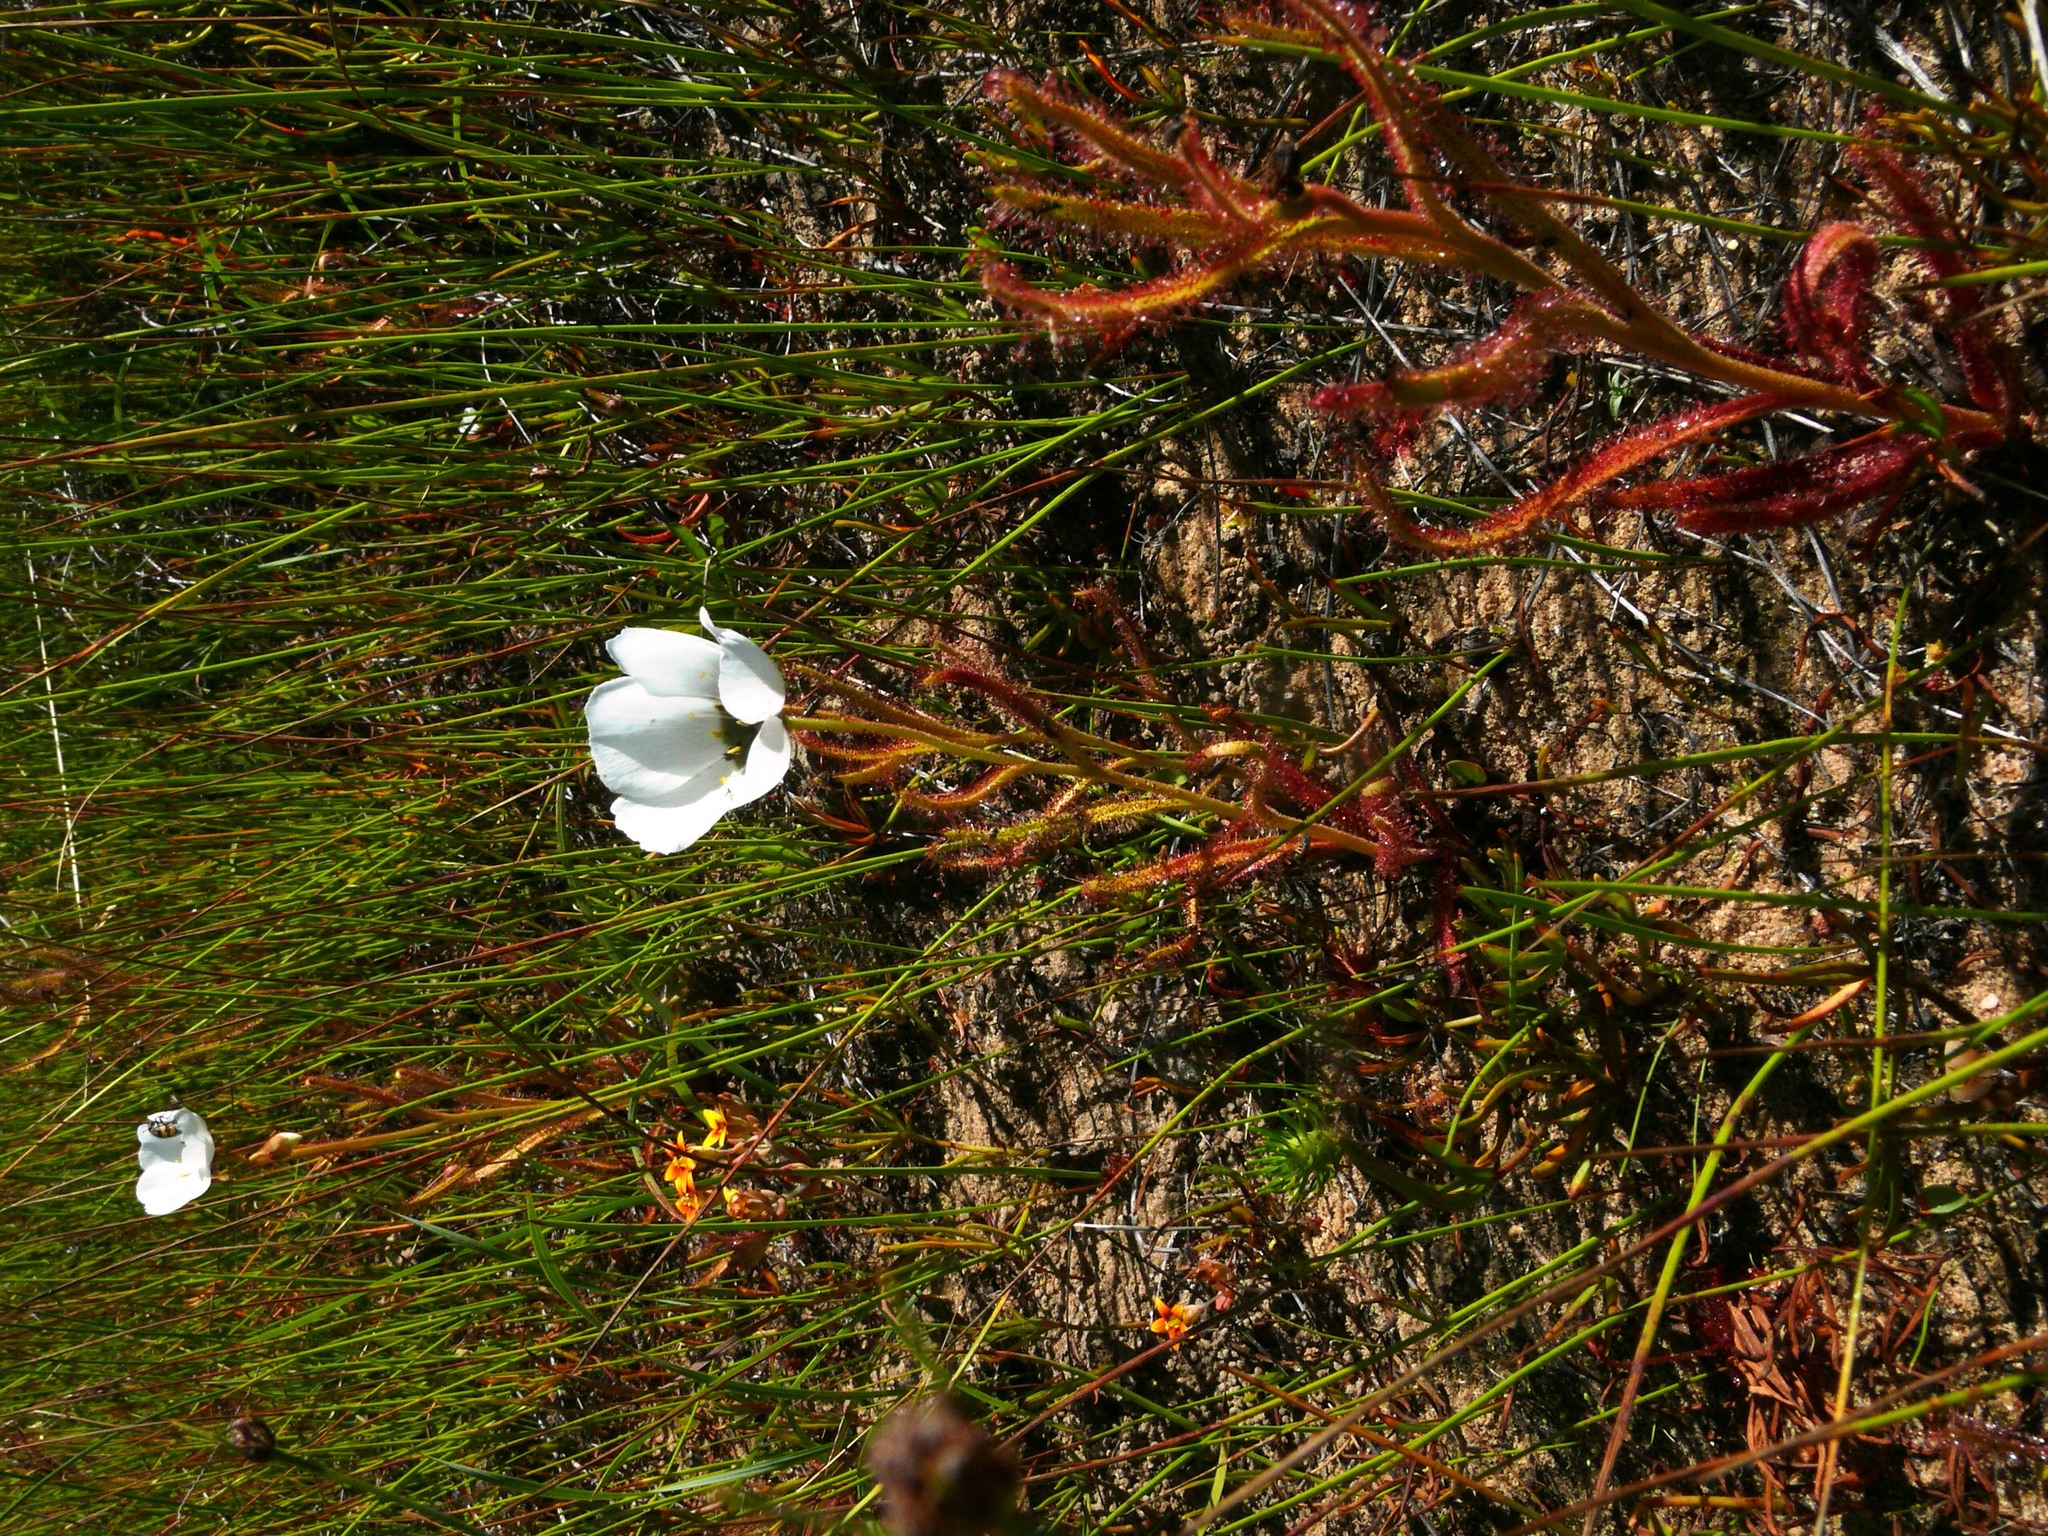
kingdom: Plantae
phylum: Tracheophyta
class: Magnoliopsida
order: Caryophyllales
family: Droseraceae
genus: Drosera
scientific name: Drosera cistiflora
